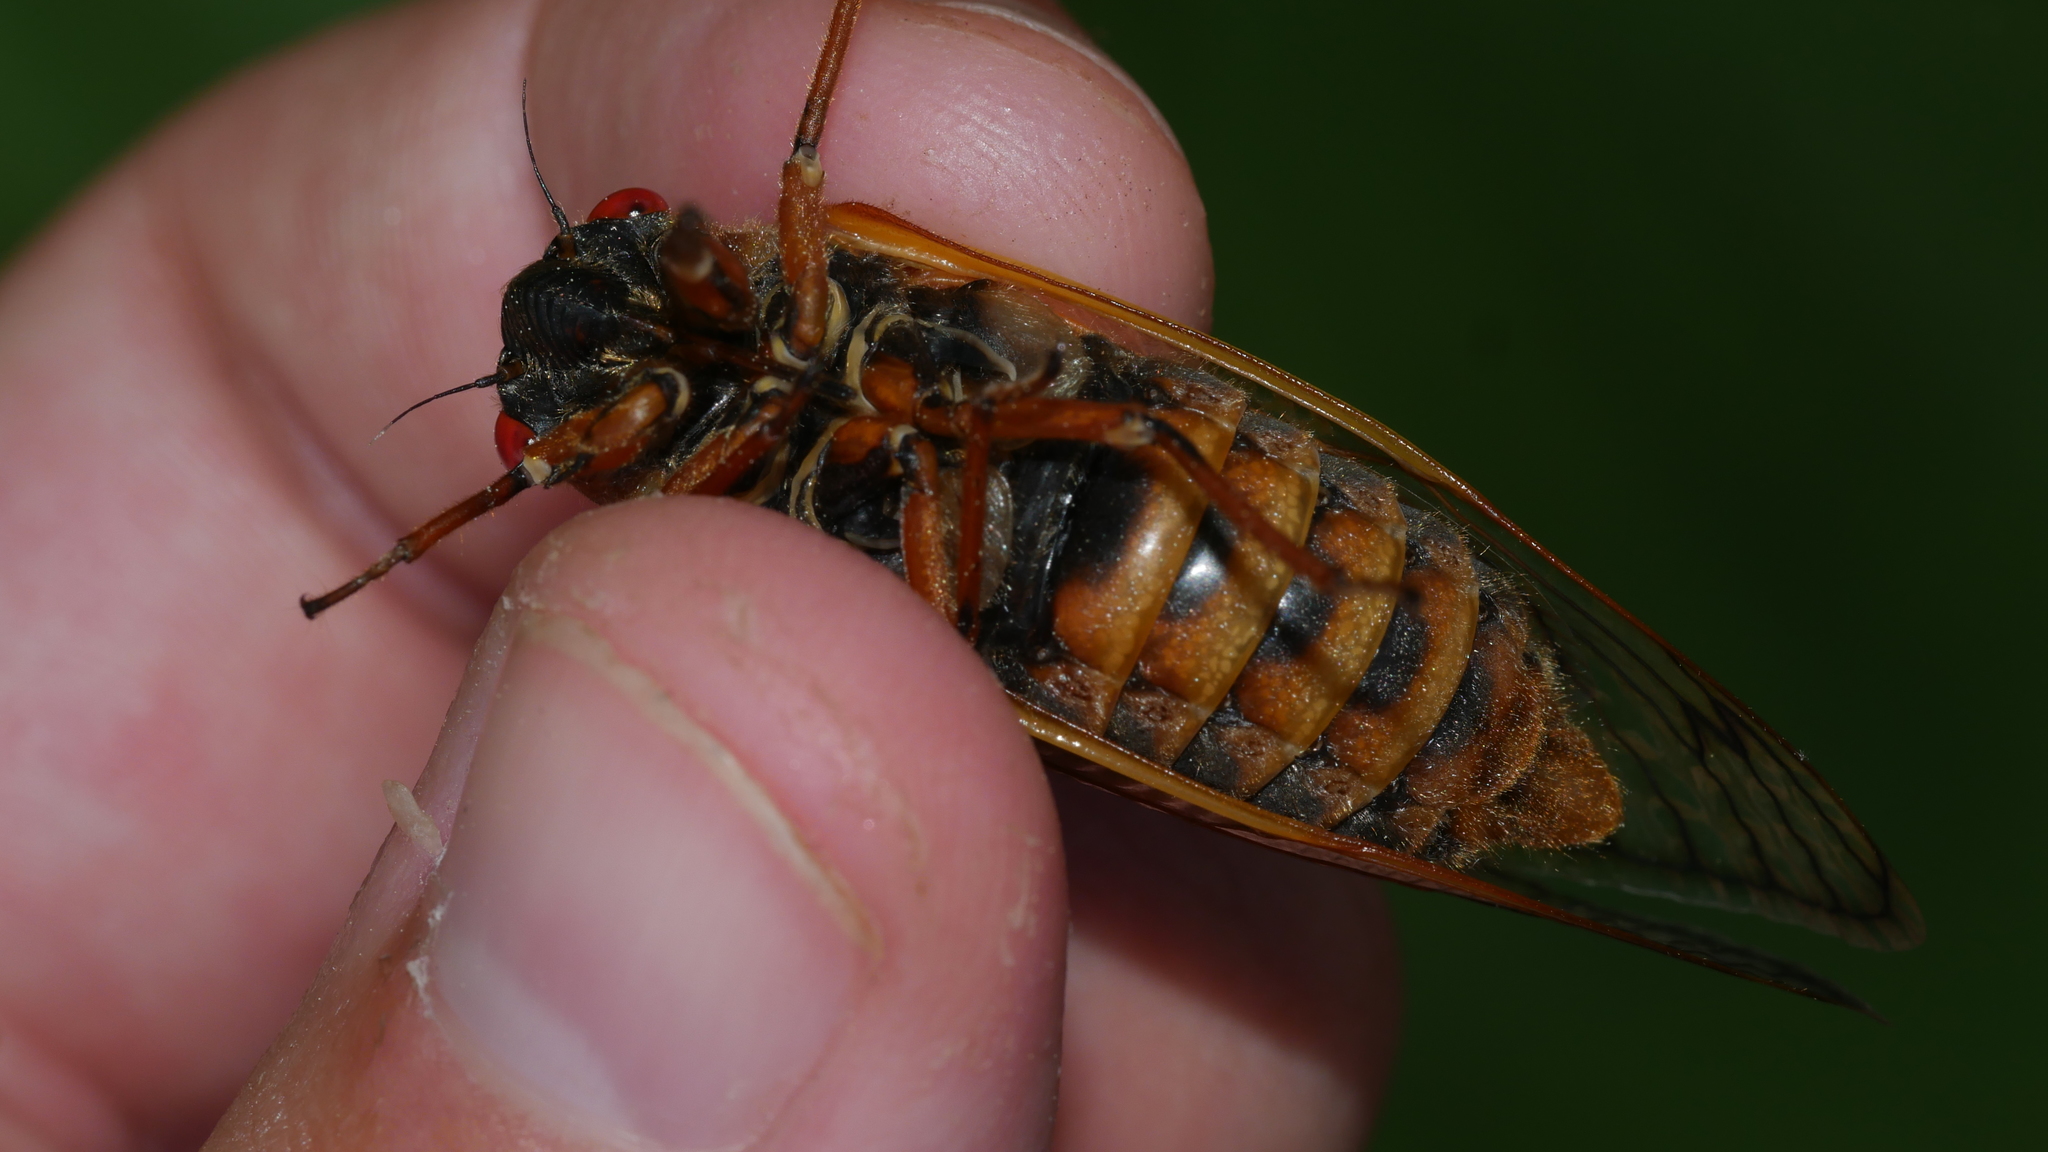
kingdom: Animalia
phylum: Arthropoda
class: Insecta
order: Hemiptera
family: Cicadidae
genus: Magicicada
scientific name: Magicicada septendecim
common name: Periodical cicada
